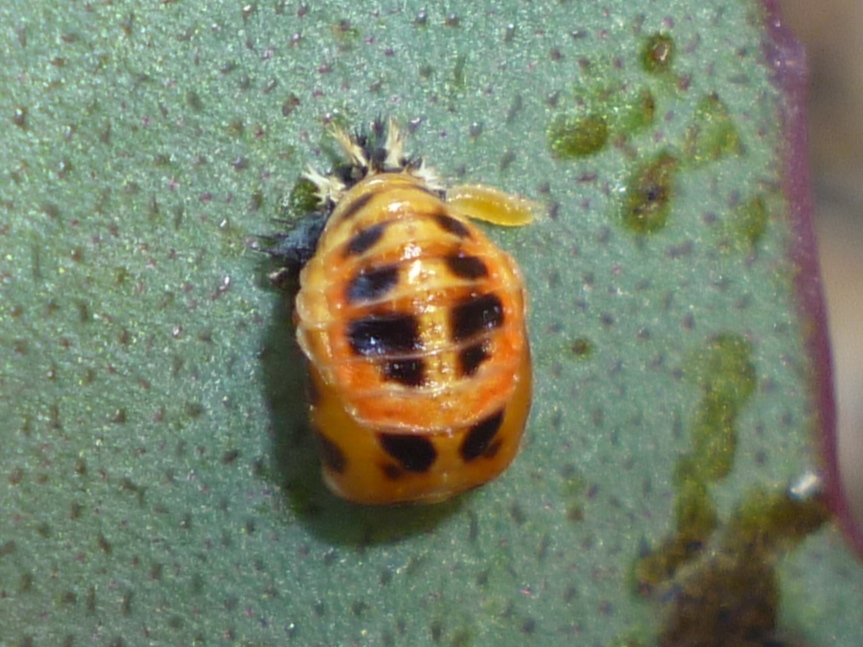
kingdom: Animalia
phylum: Arthropoda
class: Insecta
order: Coleoptera
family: Coccinellidae
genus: Harmonia
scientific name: Harmonia axyridis
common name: Harlequin ladybird
